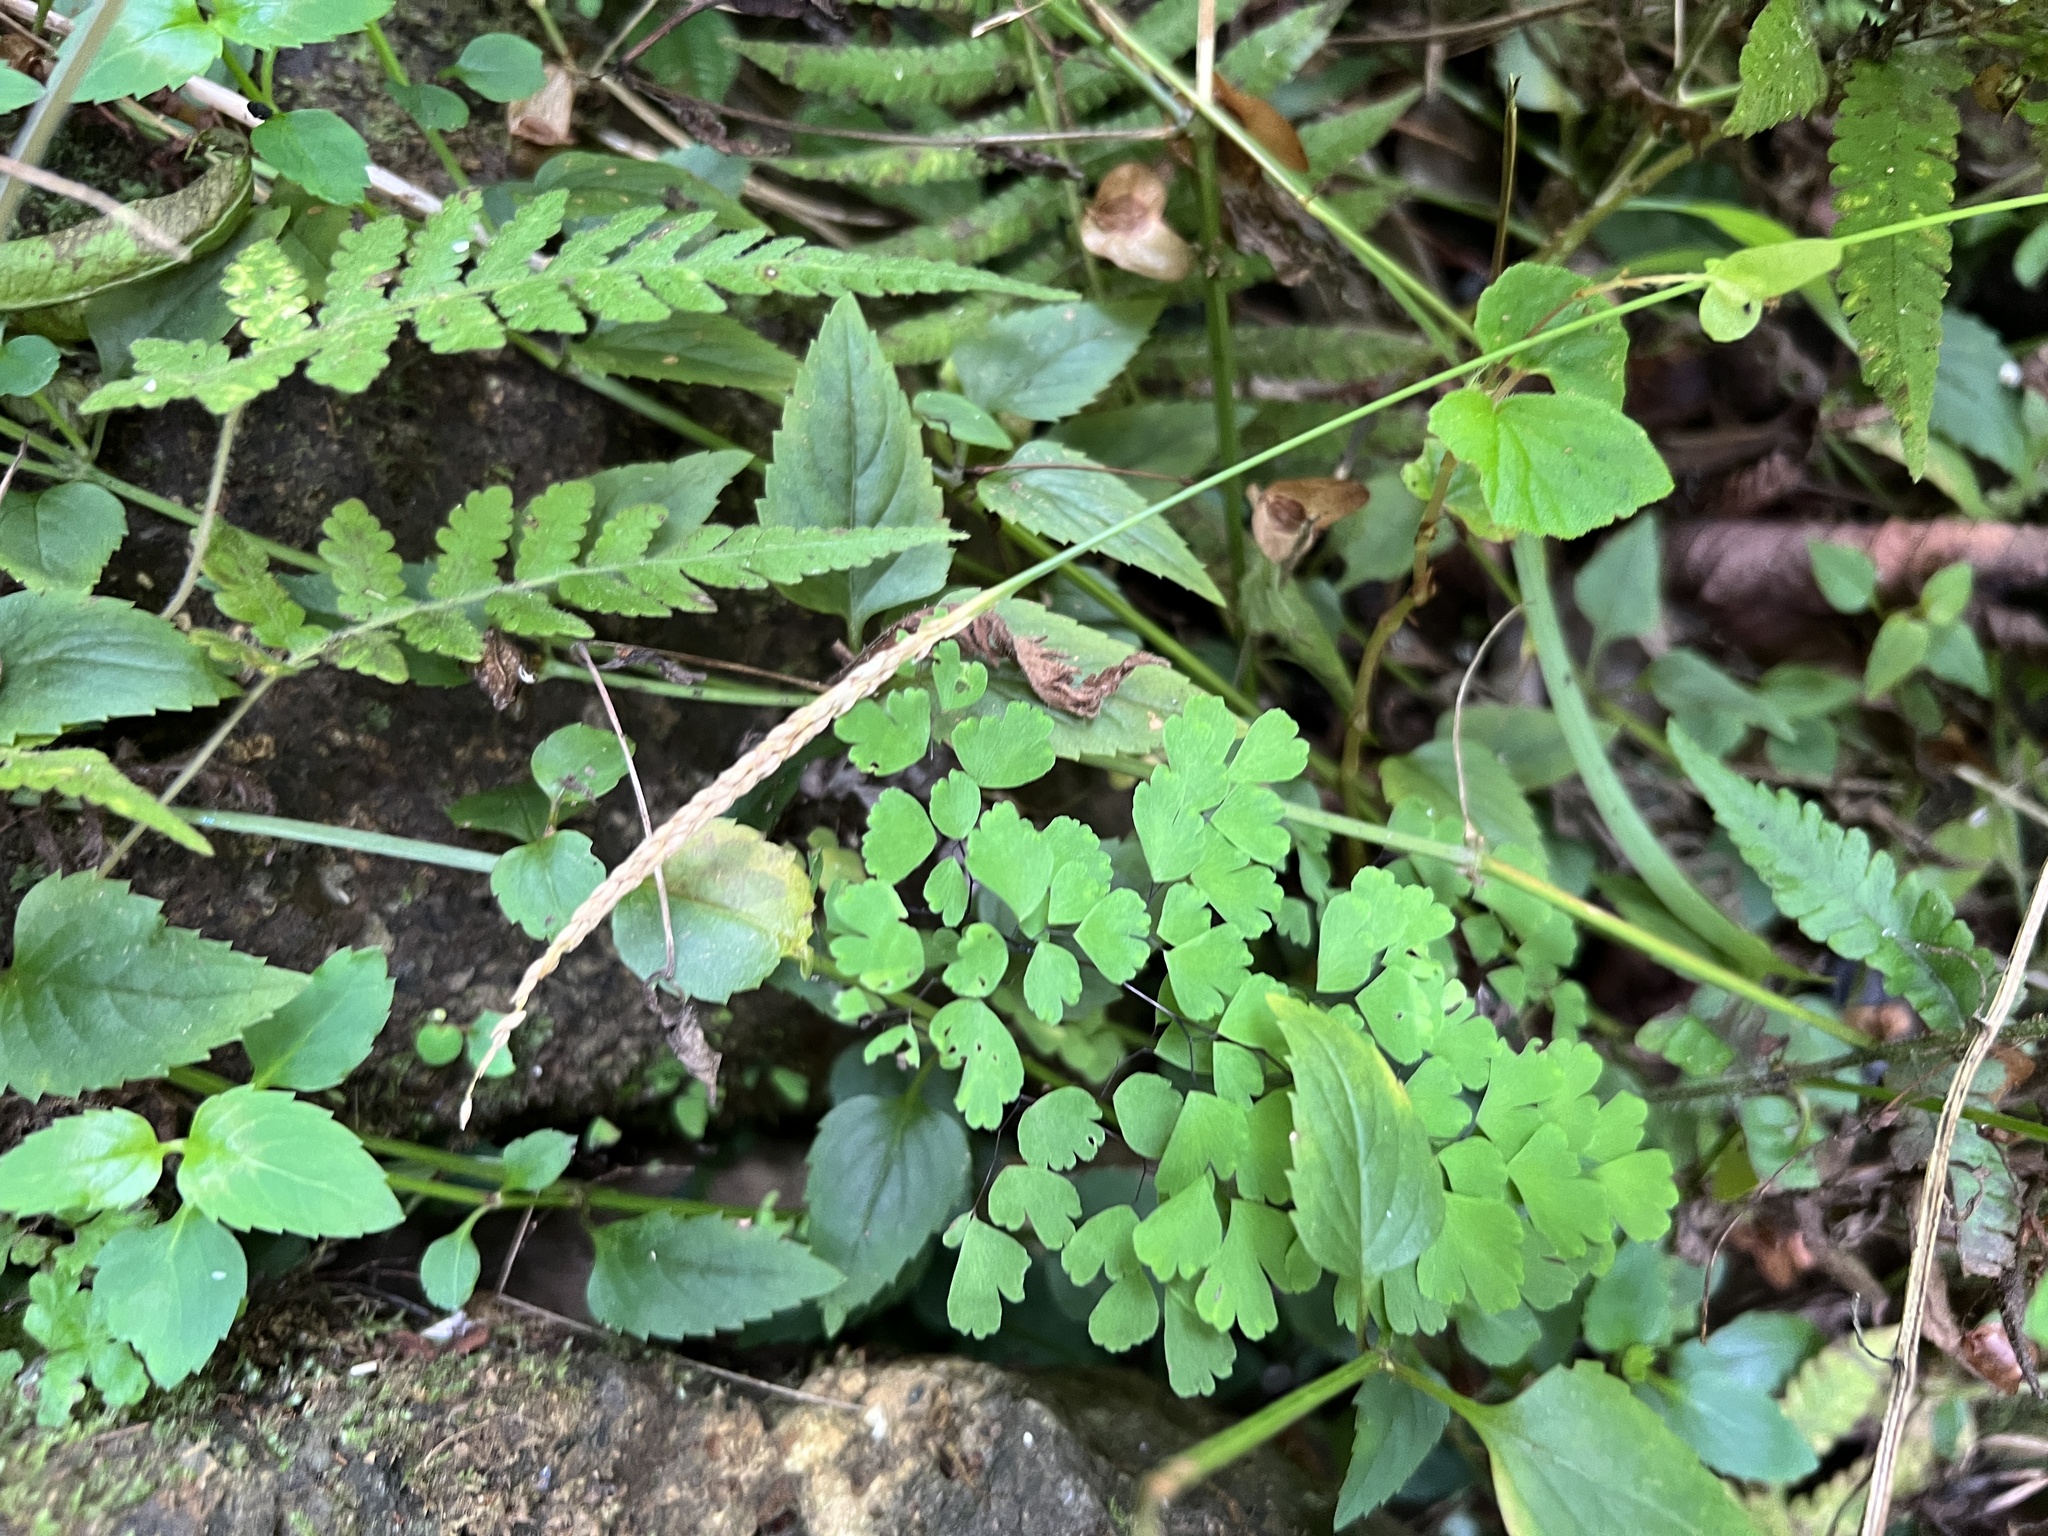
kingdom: Plantae
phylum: Tracheophyta
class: Polypodiopsida
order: Polypodiales
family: Pteridaceae
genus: Adiantum
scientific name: Adiantum raddianum
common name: Delta maidenhair fern
